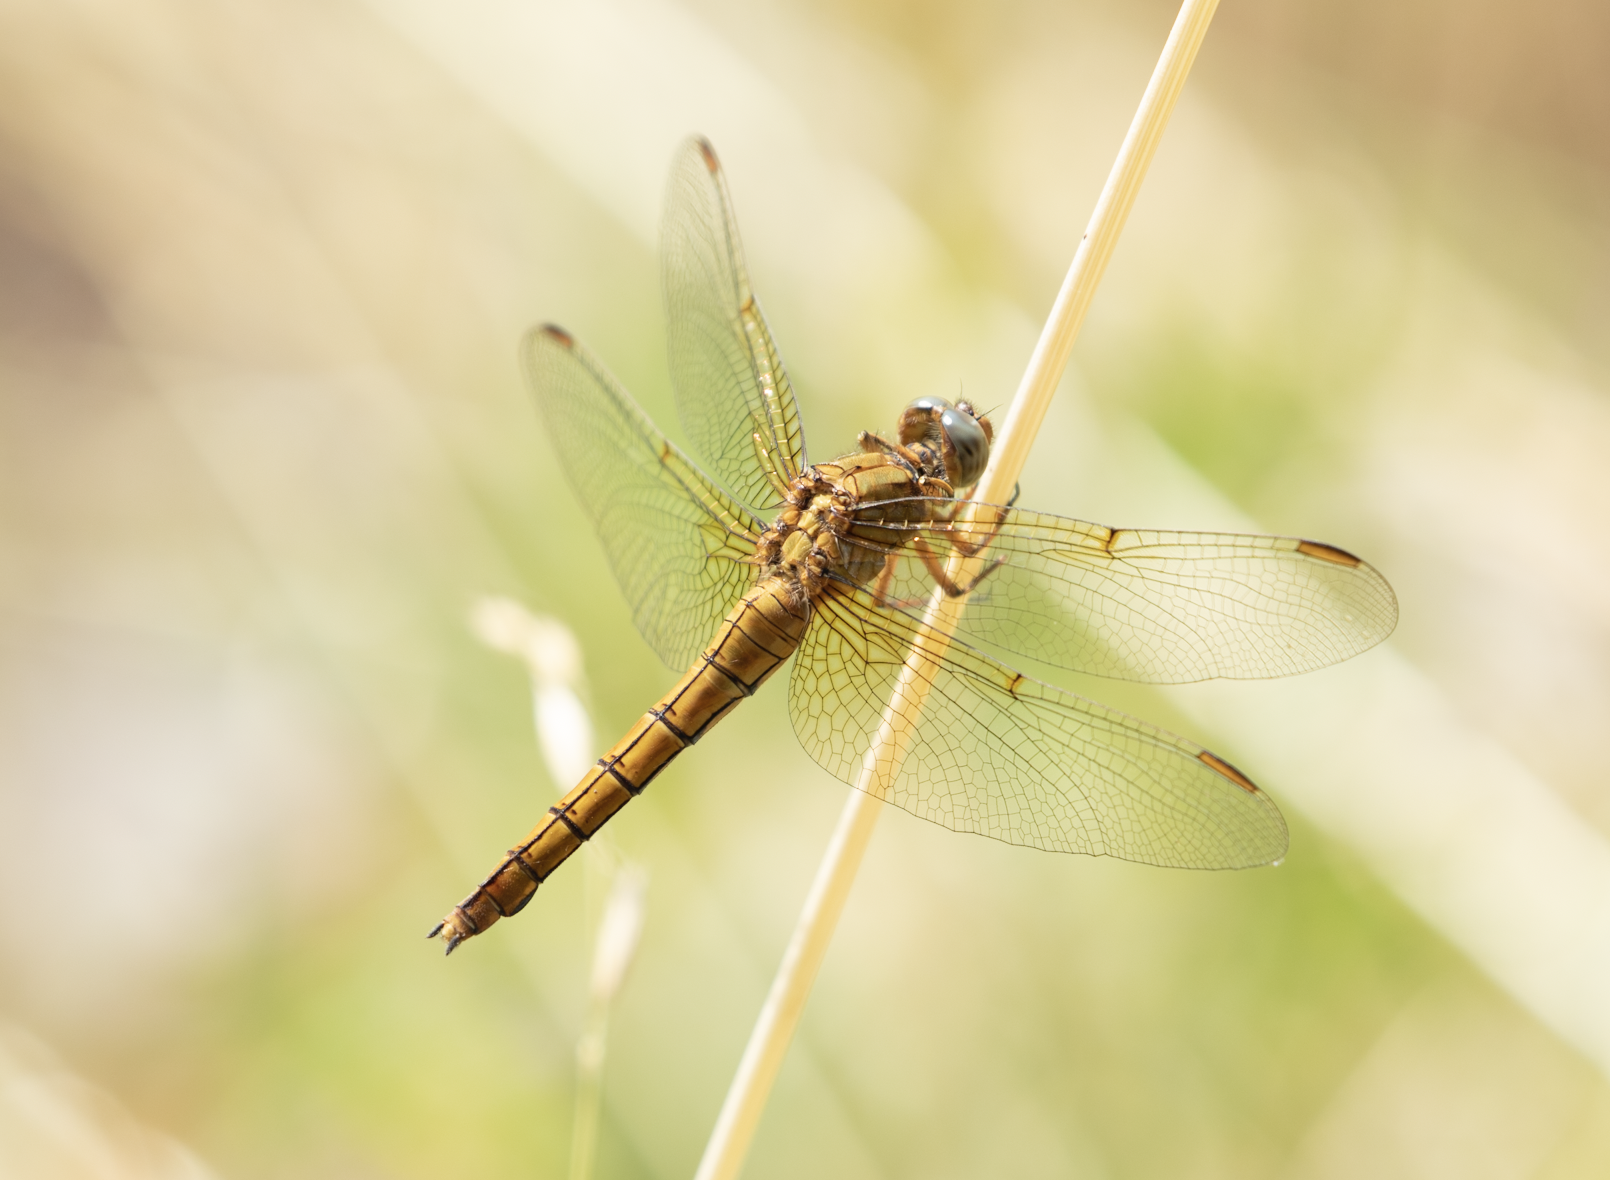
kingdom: Animalia
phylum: Arthropoda
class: Insecta
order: Odonata
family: Libellulidae
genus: Orthetrum
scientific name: Orthetrum coerulescens
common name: Keeled skimmer
